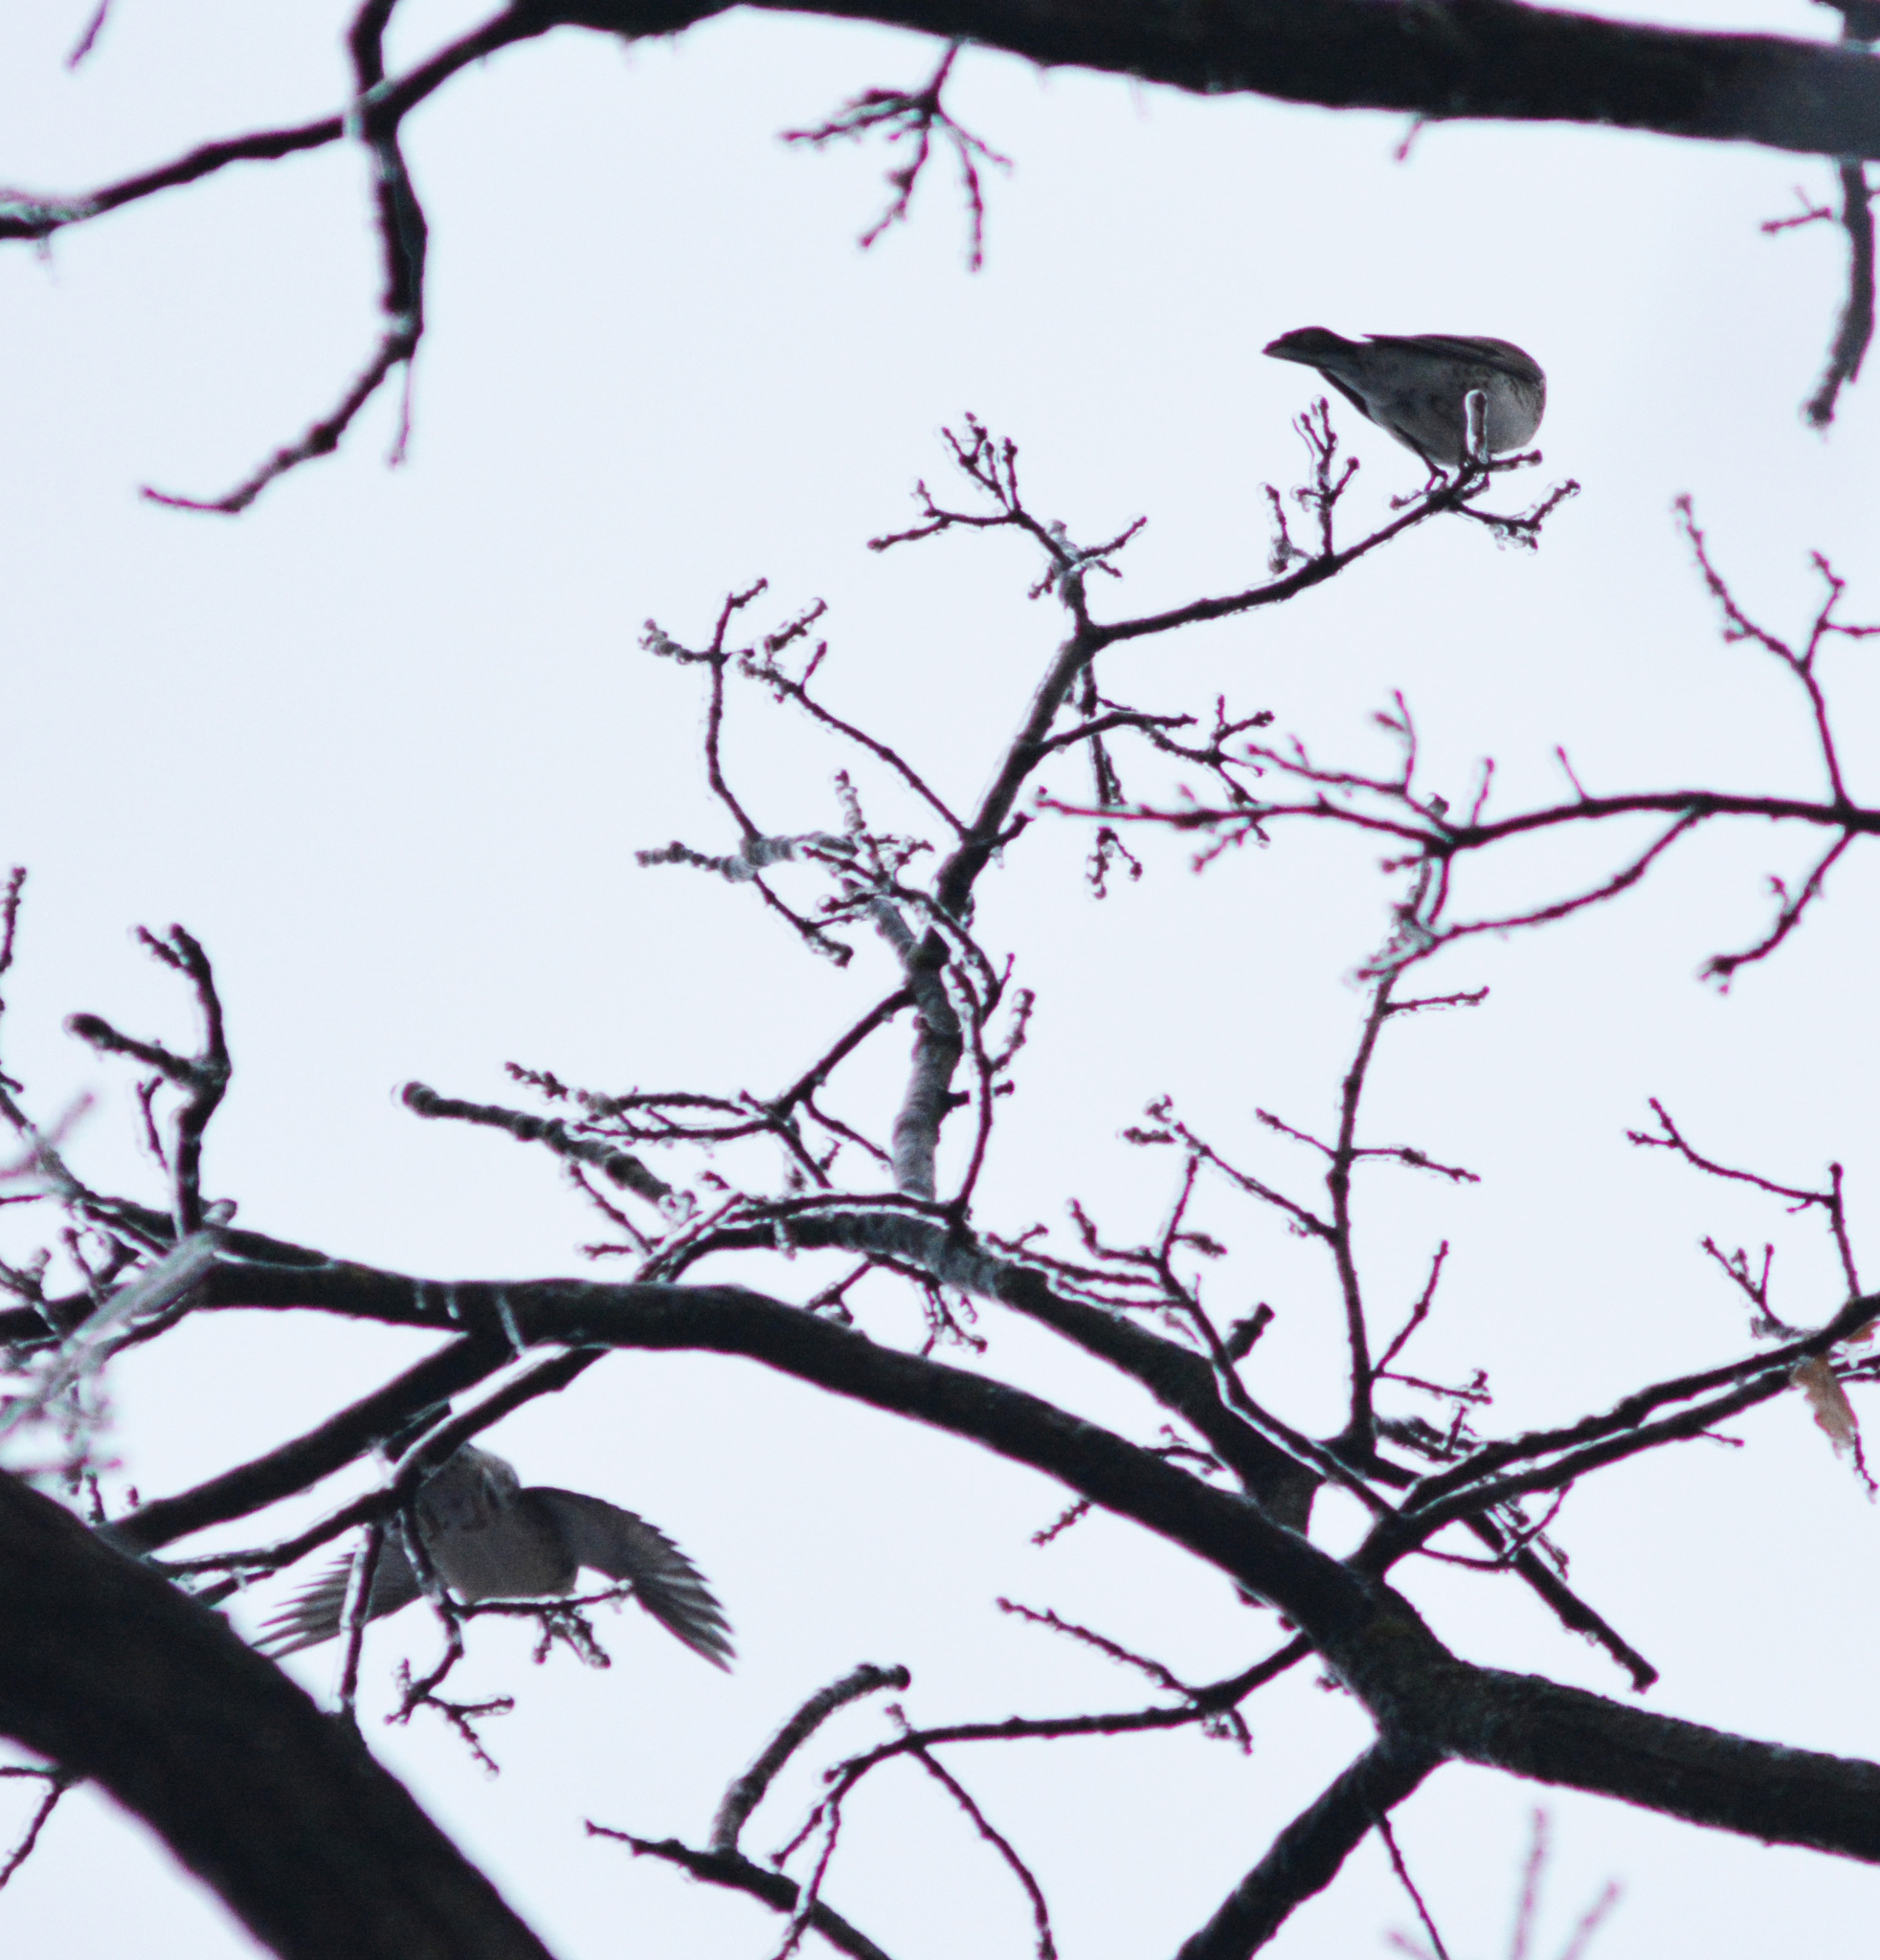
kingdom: Animalia
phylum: Chordata
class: Aves
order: Passeriformes
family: Turdidae
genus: Turdus
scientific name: Turdus pilaris
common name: Fieldfare
